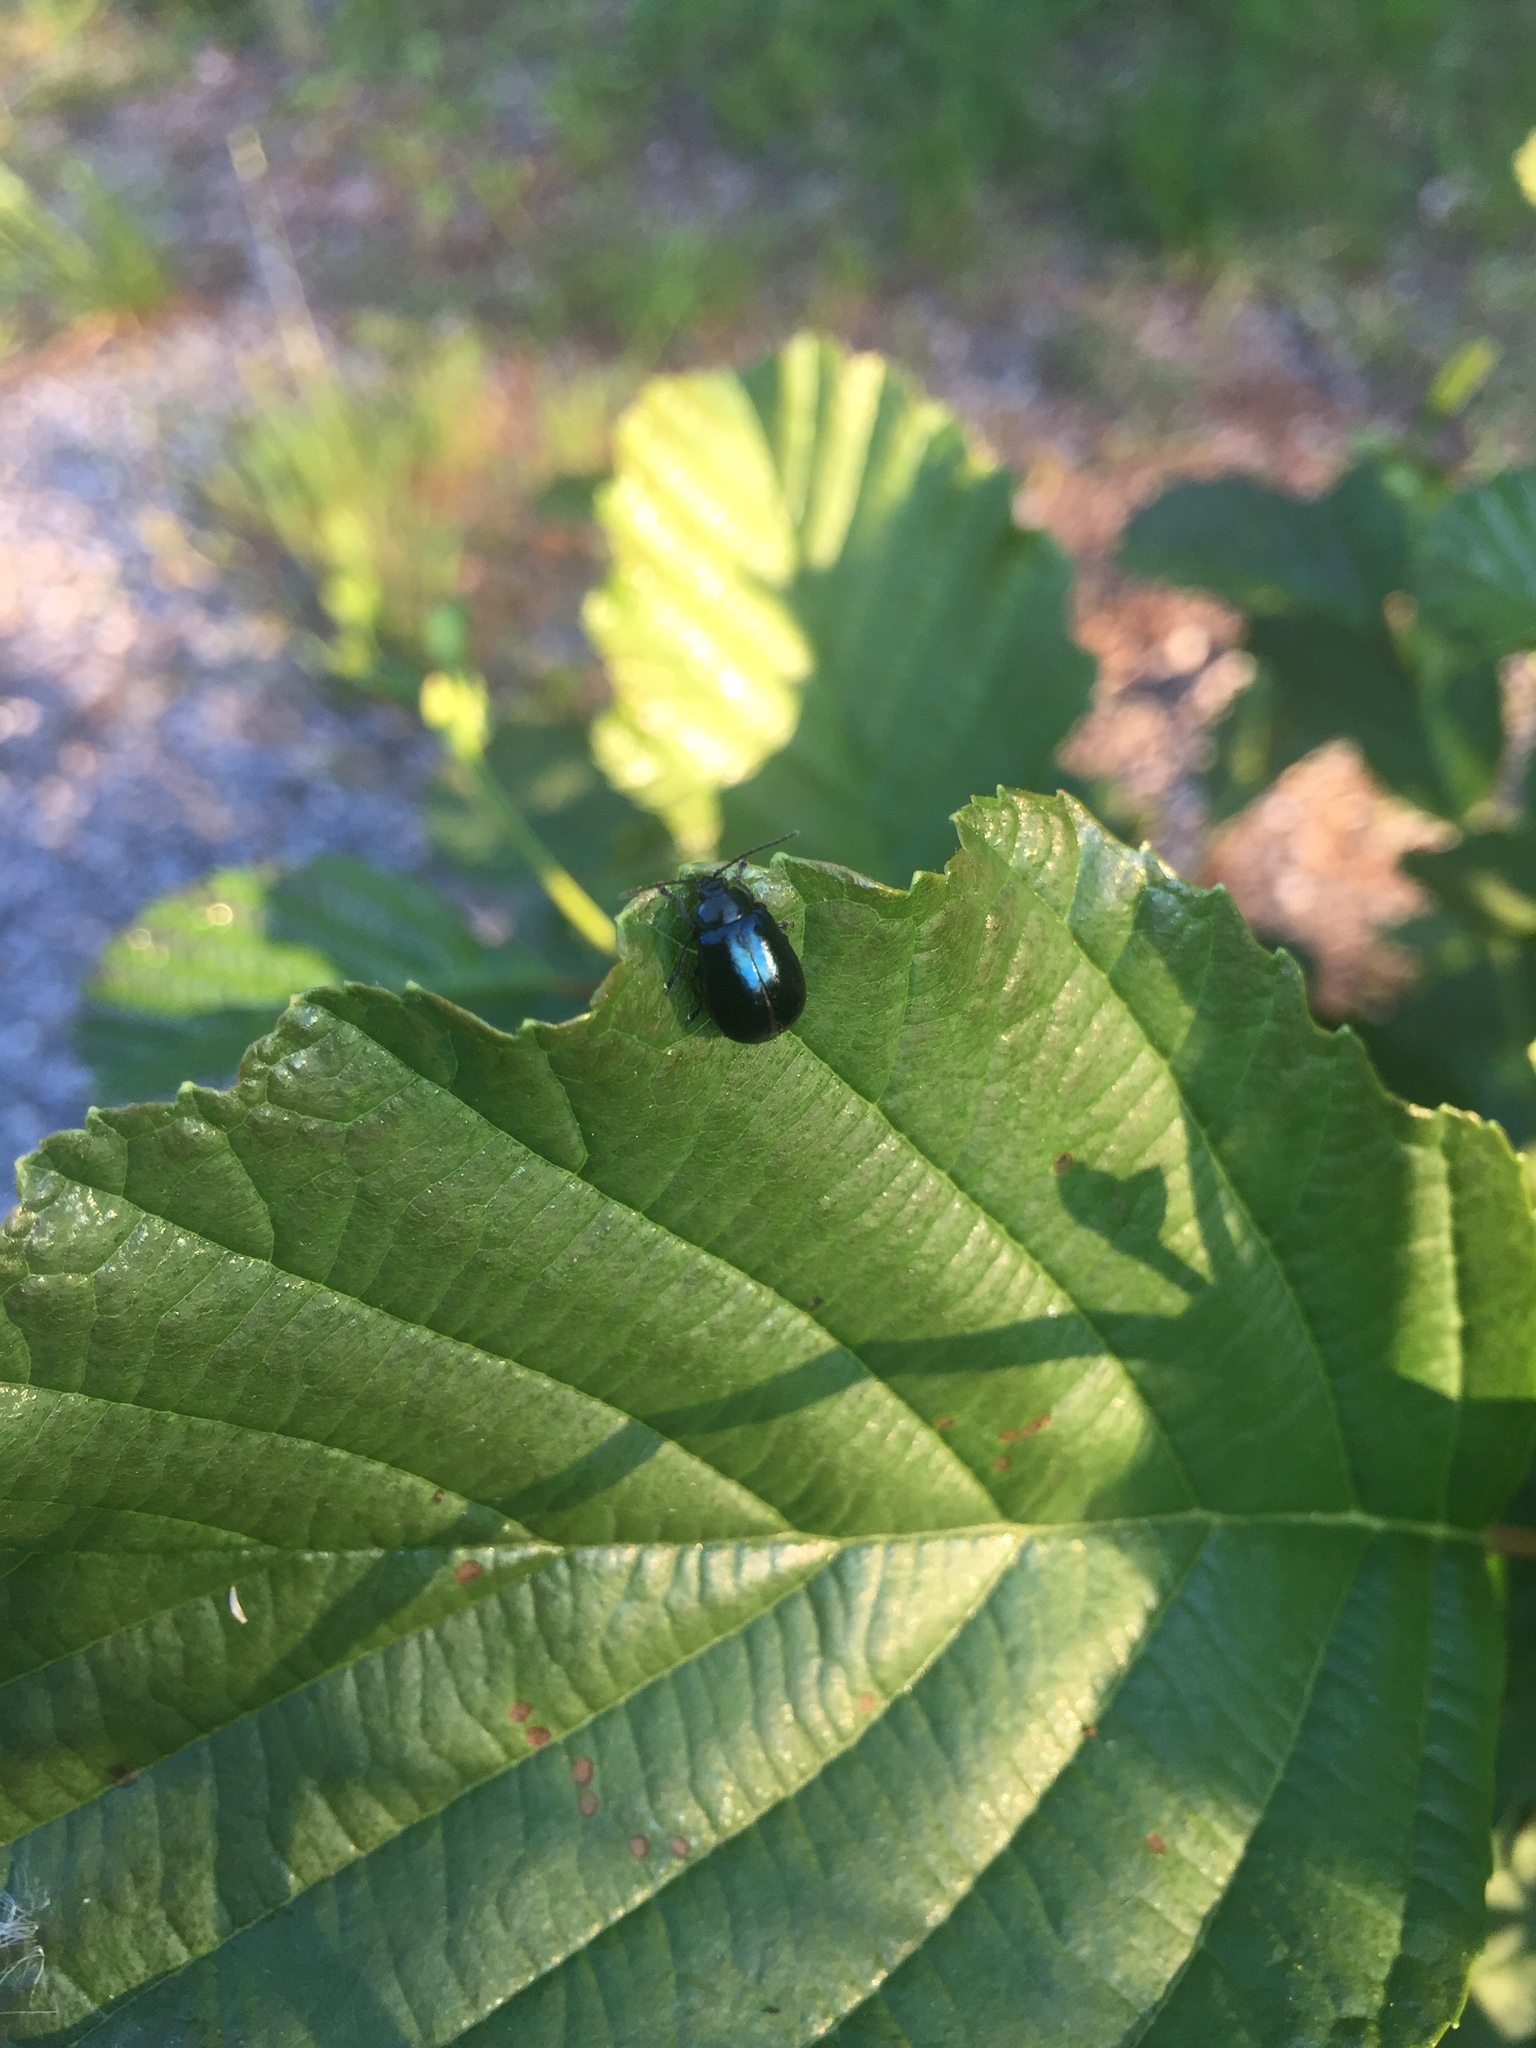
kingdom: Animalia
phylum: Arthropoda
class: Insecta
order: Coleoptera
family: Chrysomelidae
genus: Agelastica
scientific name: Agelastica alni
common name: Alder leaf beetle
